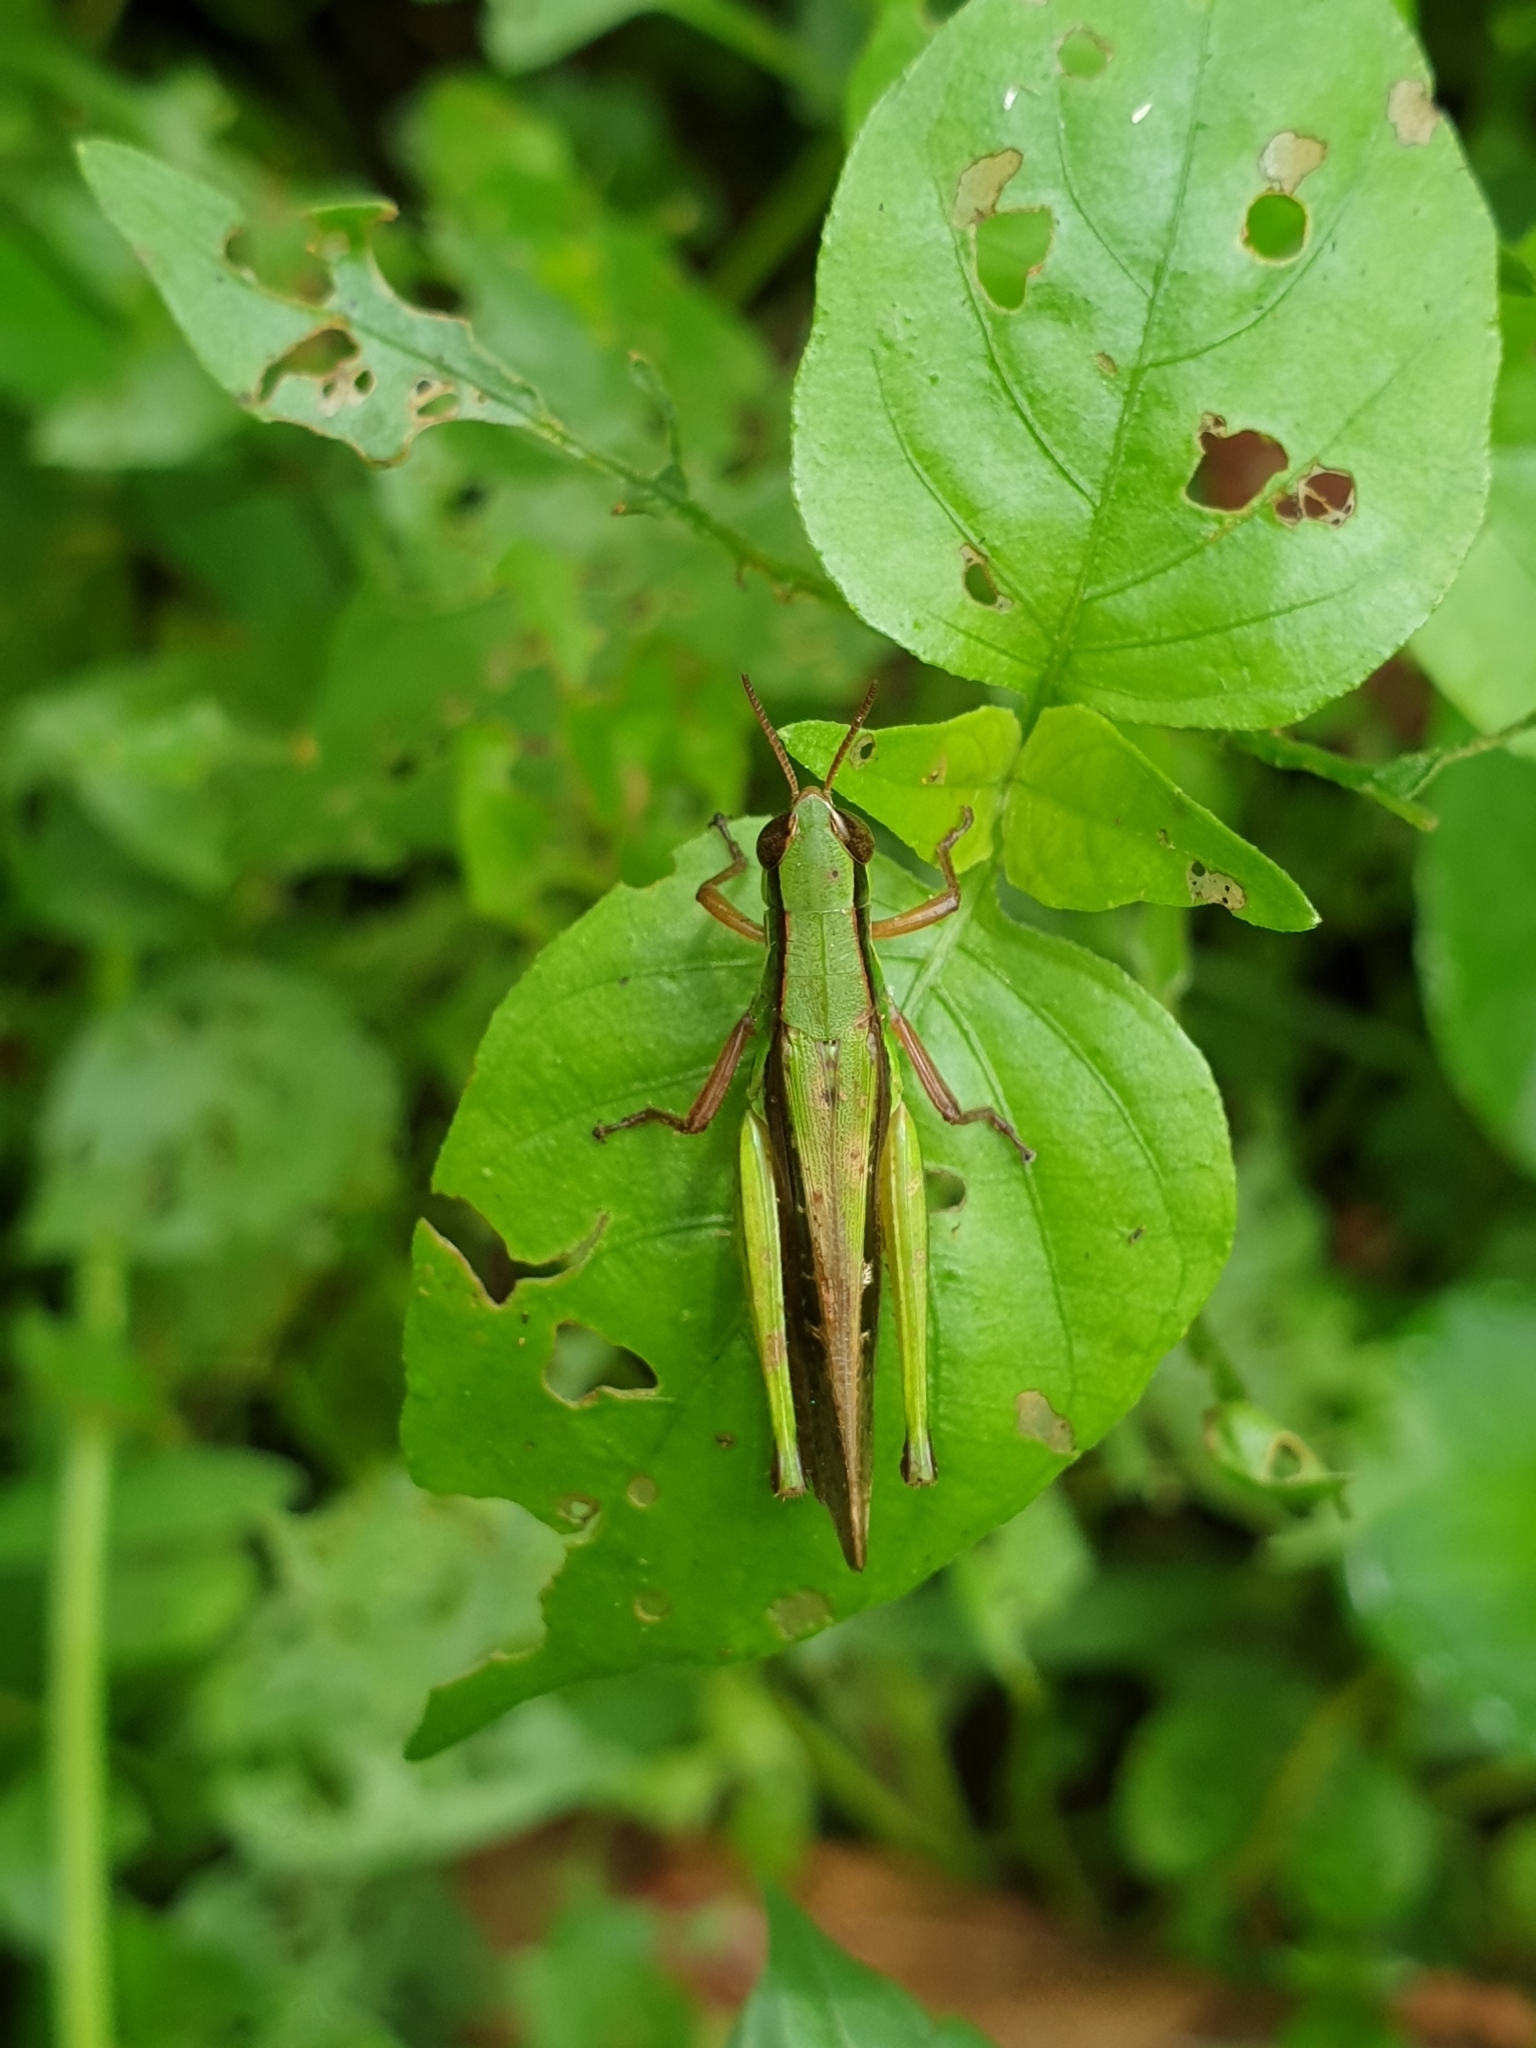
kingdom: Animalia
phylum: Arthropoda
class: Insecta
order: Orthoptera
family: Acrididae
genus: Spathosternum
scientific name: Spathosternum prasiniferum
